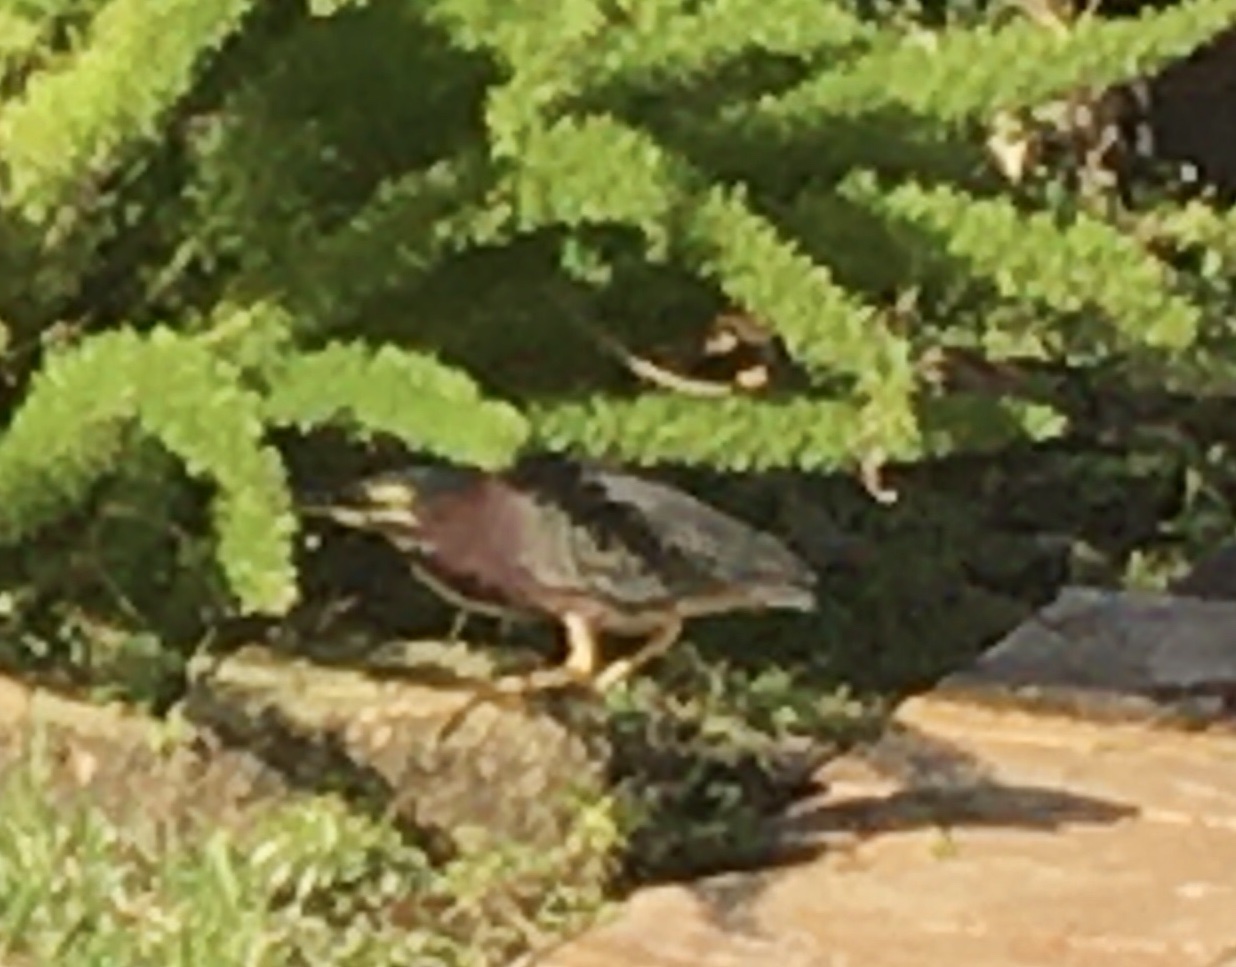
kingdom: Animalia
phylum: Chordata
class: Aves
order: Pelecaniformes
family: Ardeidae
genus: Butorides
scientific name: Butorides virescens
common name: Green heron
